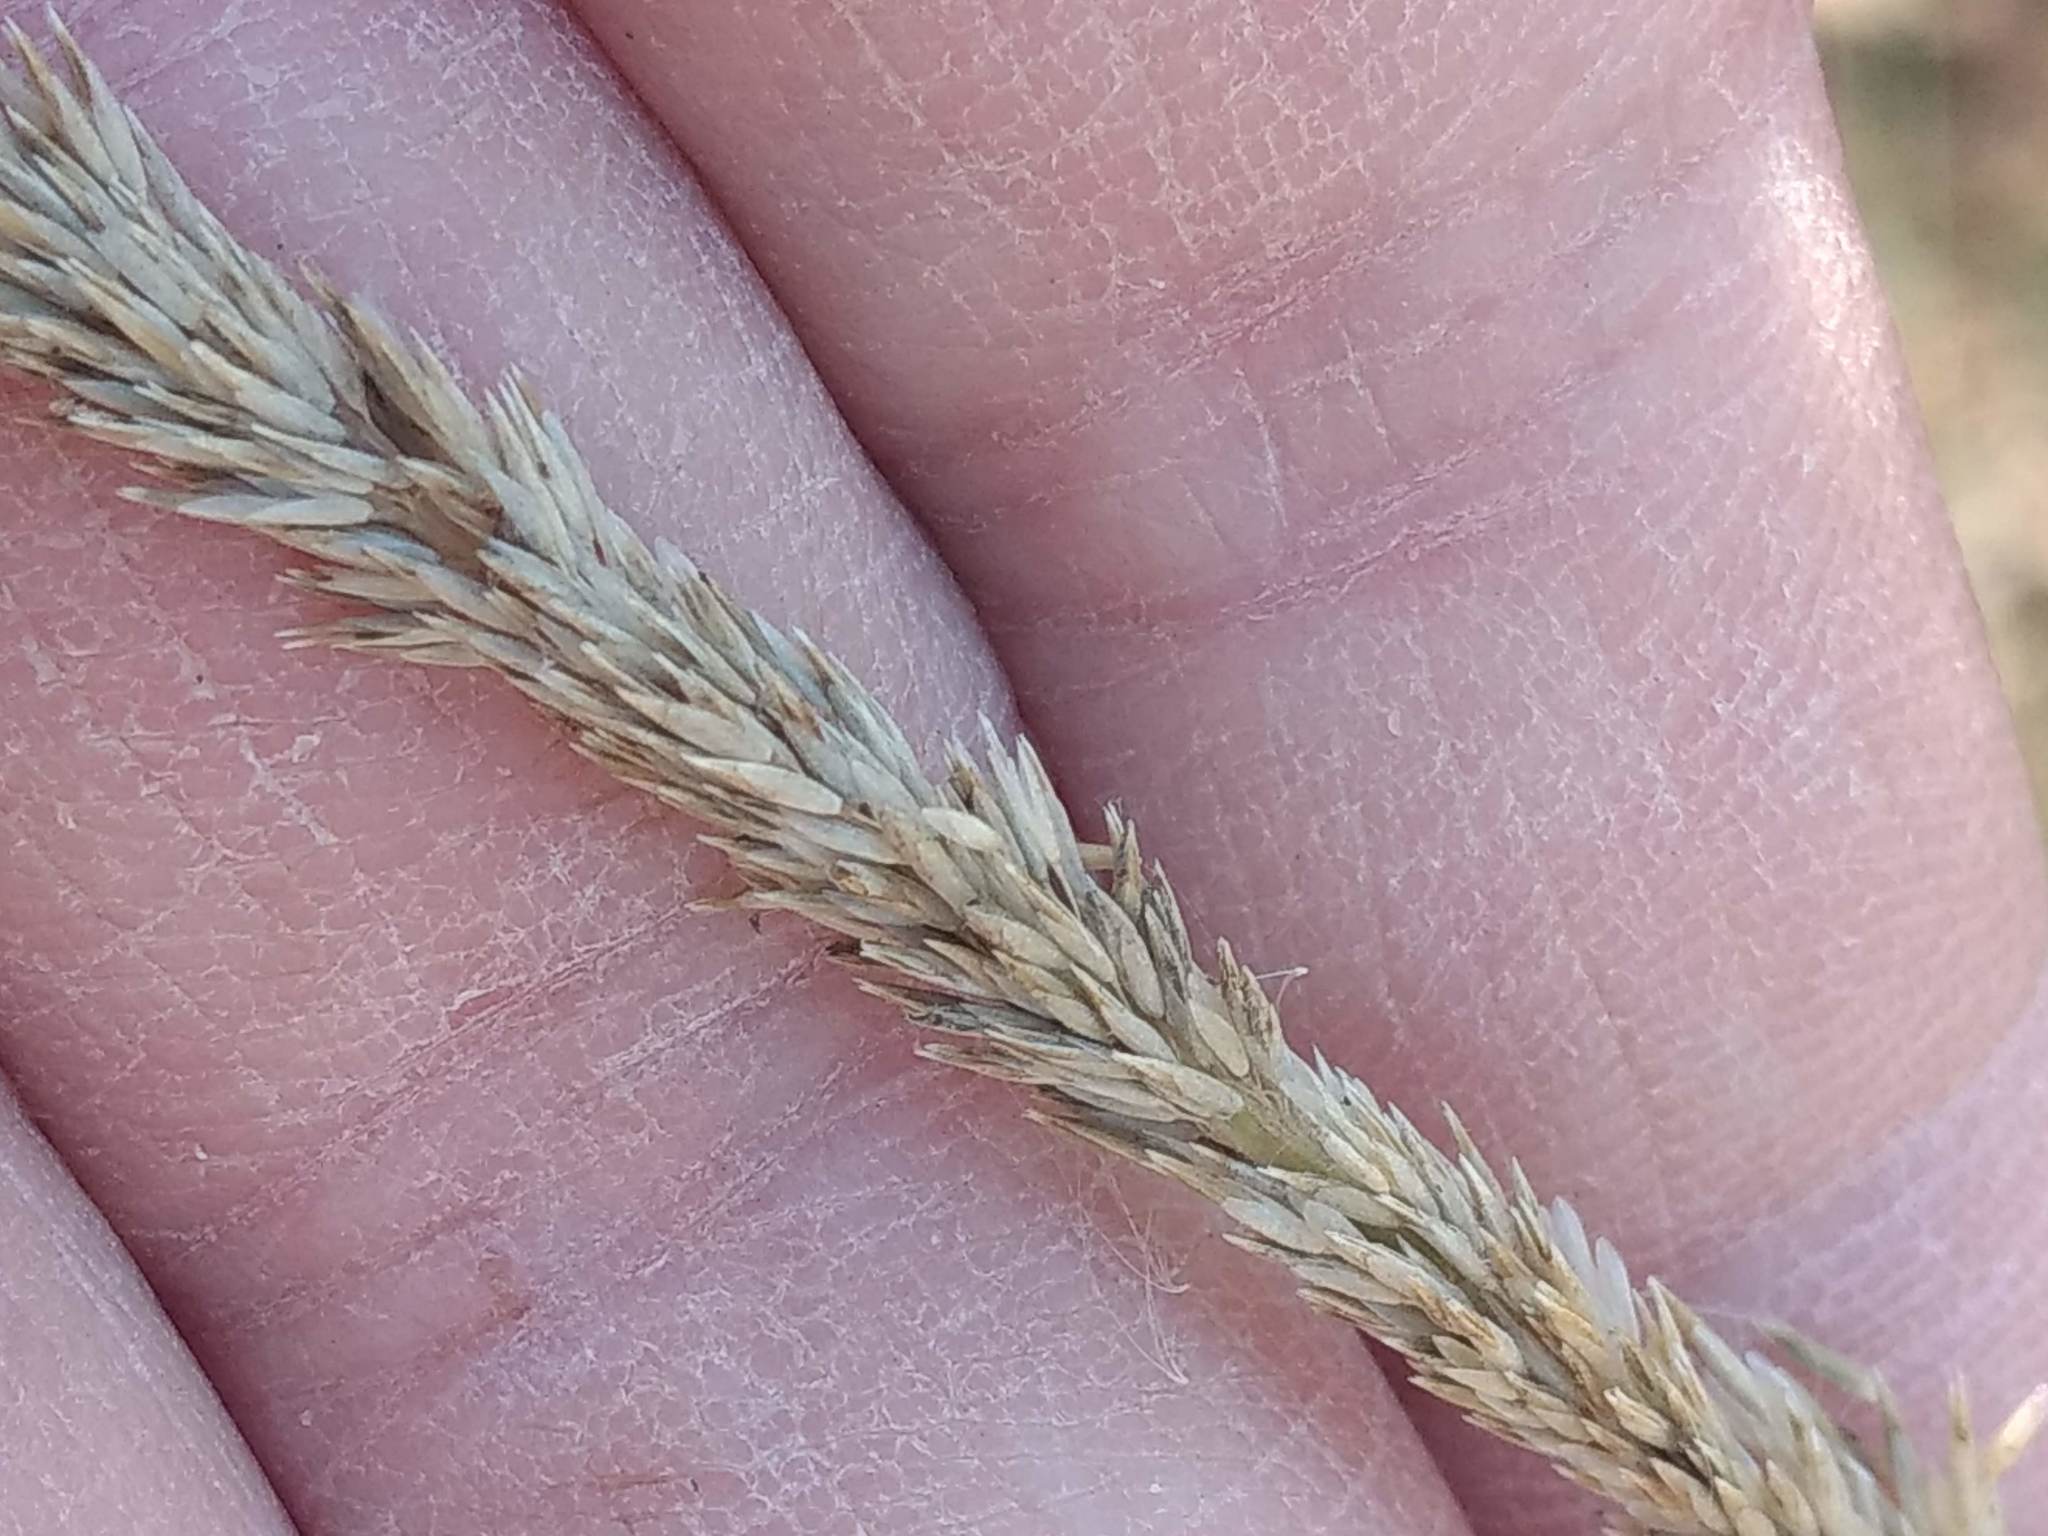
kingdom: Plantae
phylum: Tracheophyta
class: Liliopsida
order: Poales
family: Poaceae
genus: Muhlenbergia
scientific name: Muhlenbergia rigens
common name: Deer grass
